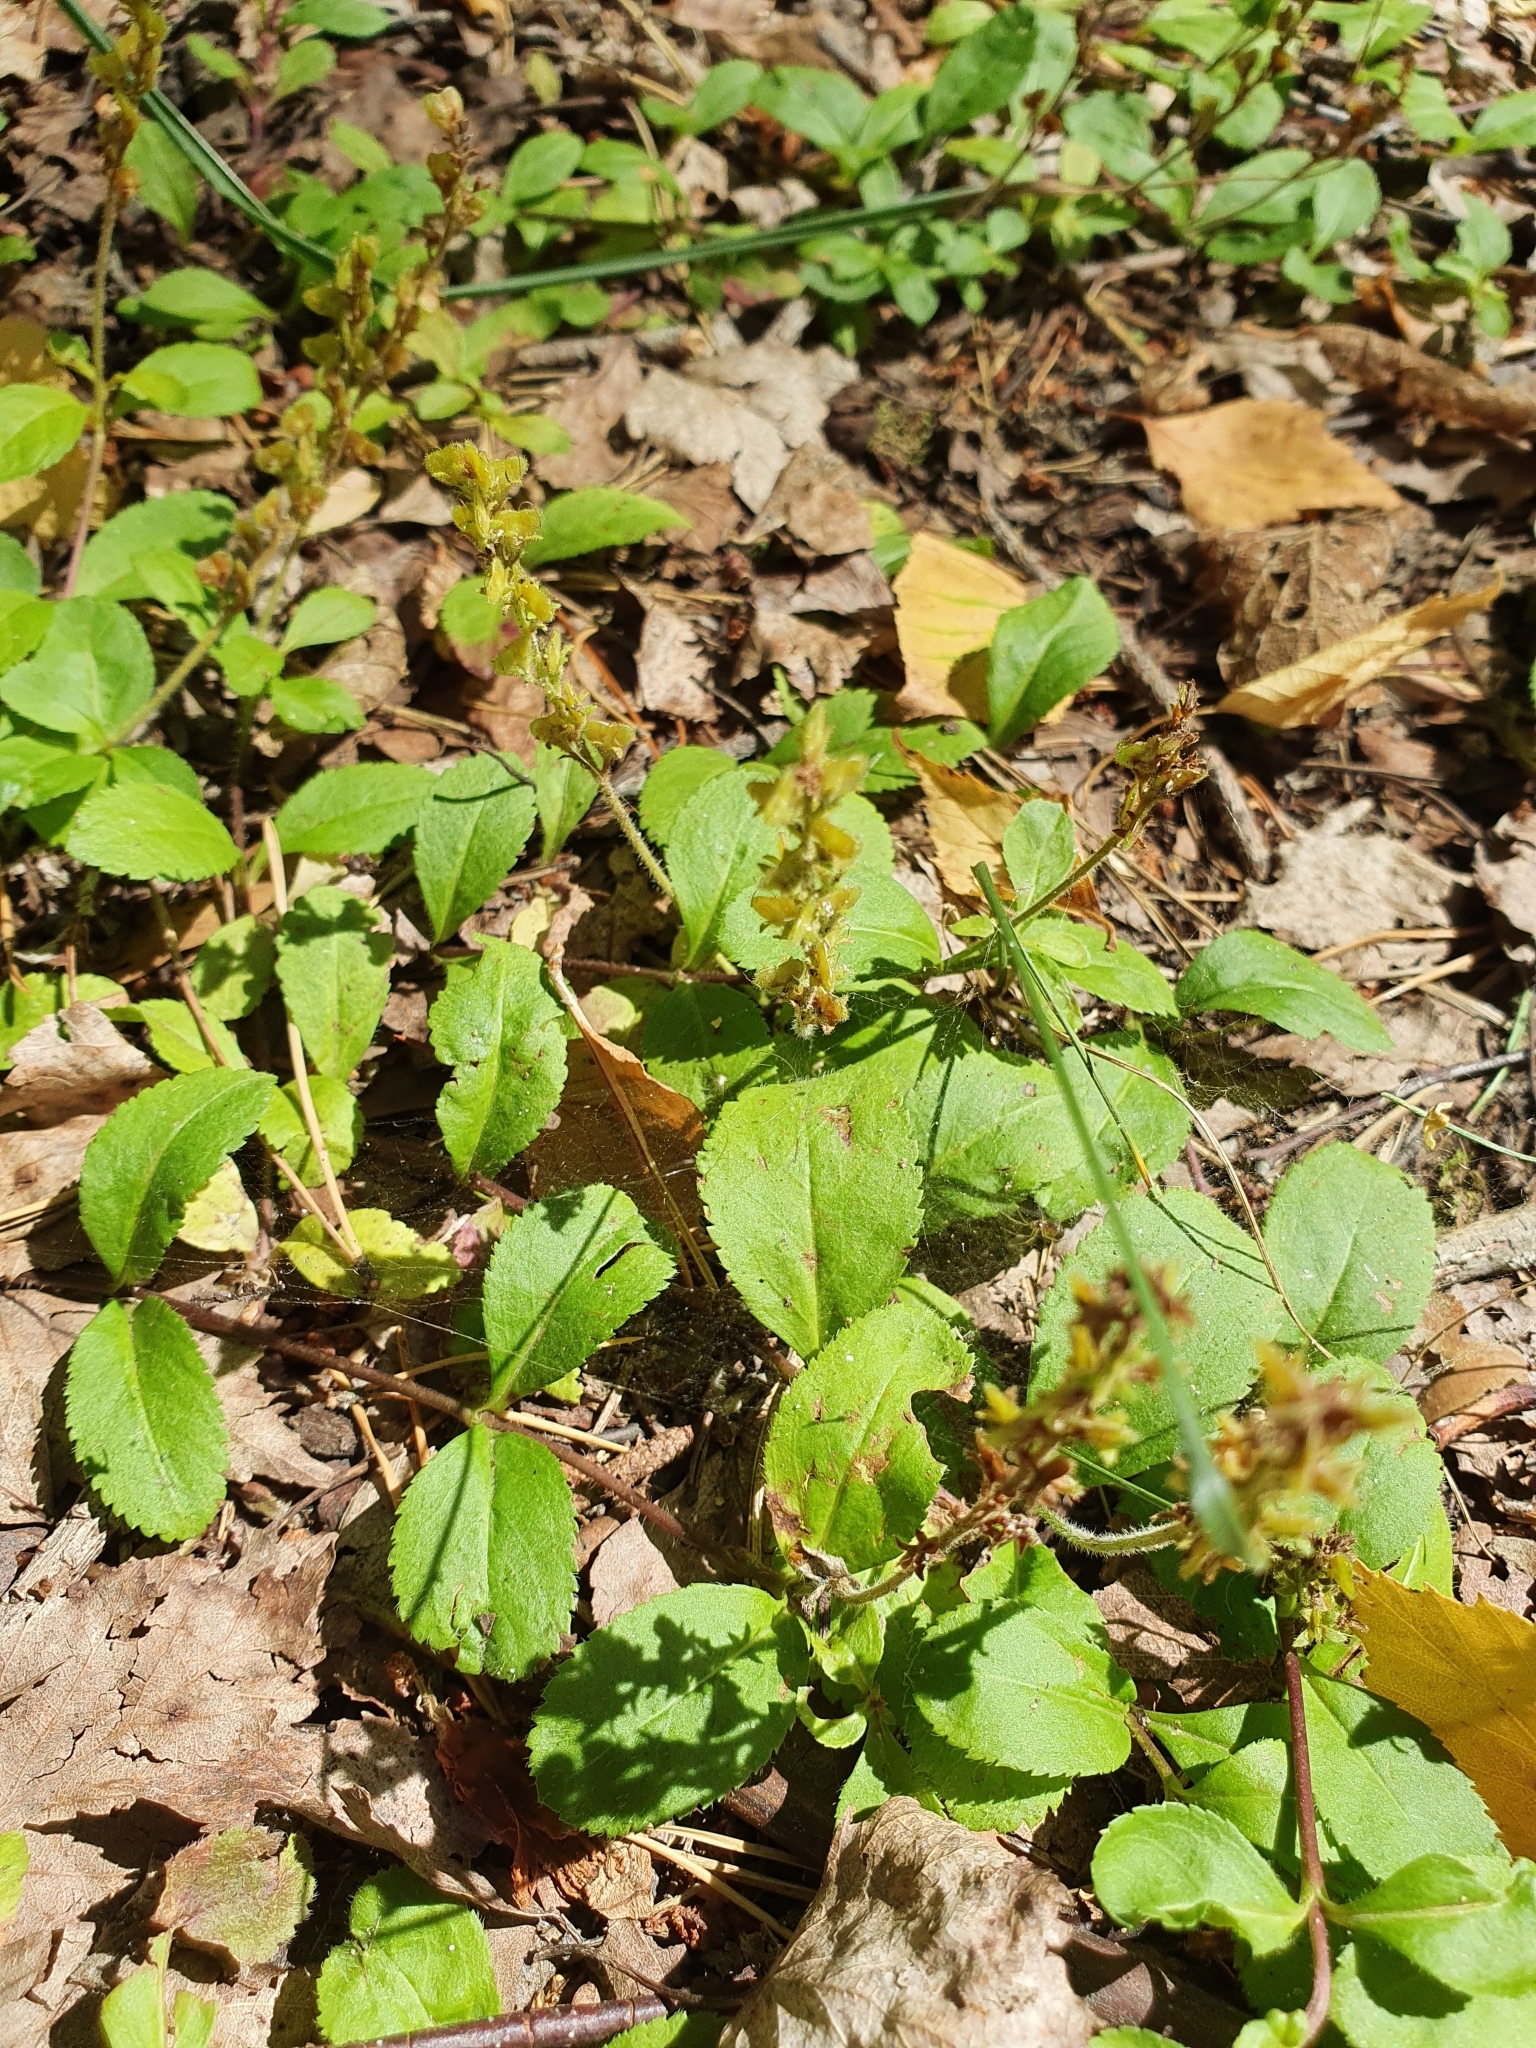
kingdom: Plantae
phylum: Tracheophyta
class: Magnoliopsida
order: Lamiales
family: Plantaginaceae
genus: Veronica
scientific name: Veronica officinalis
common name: Common speedwell
